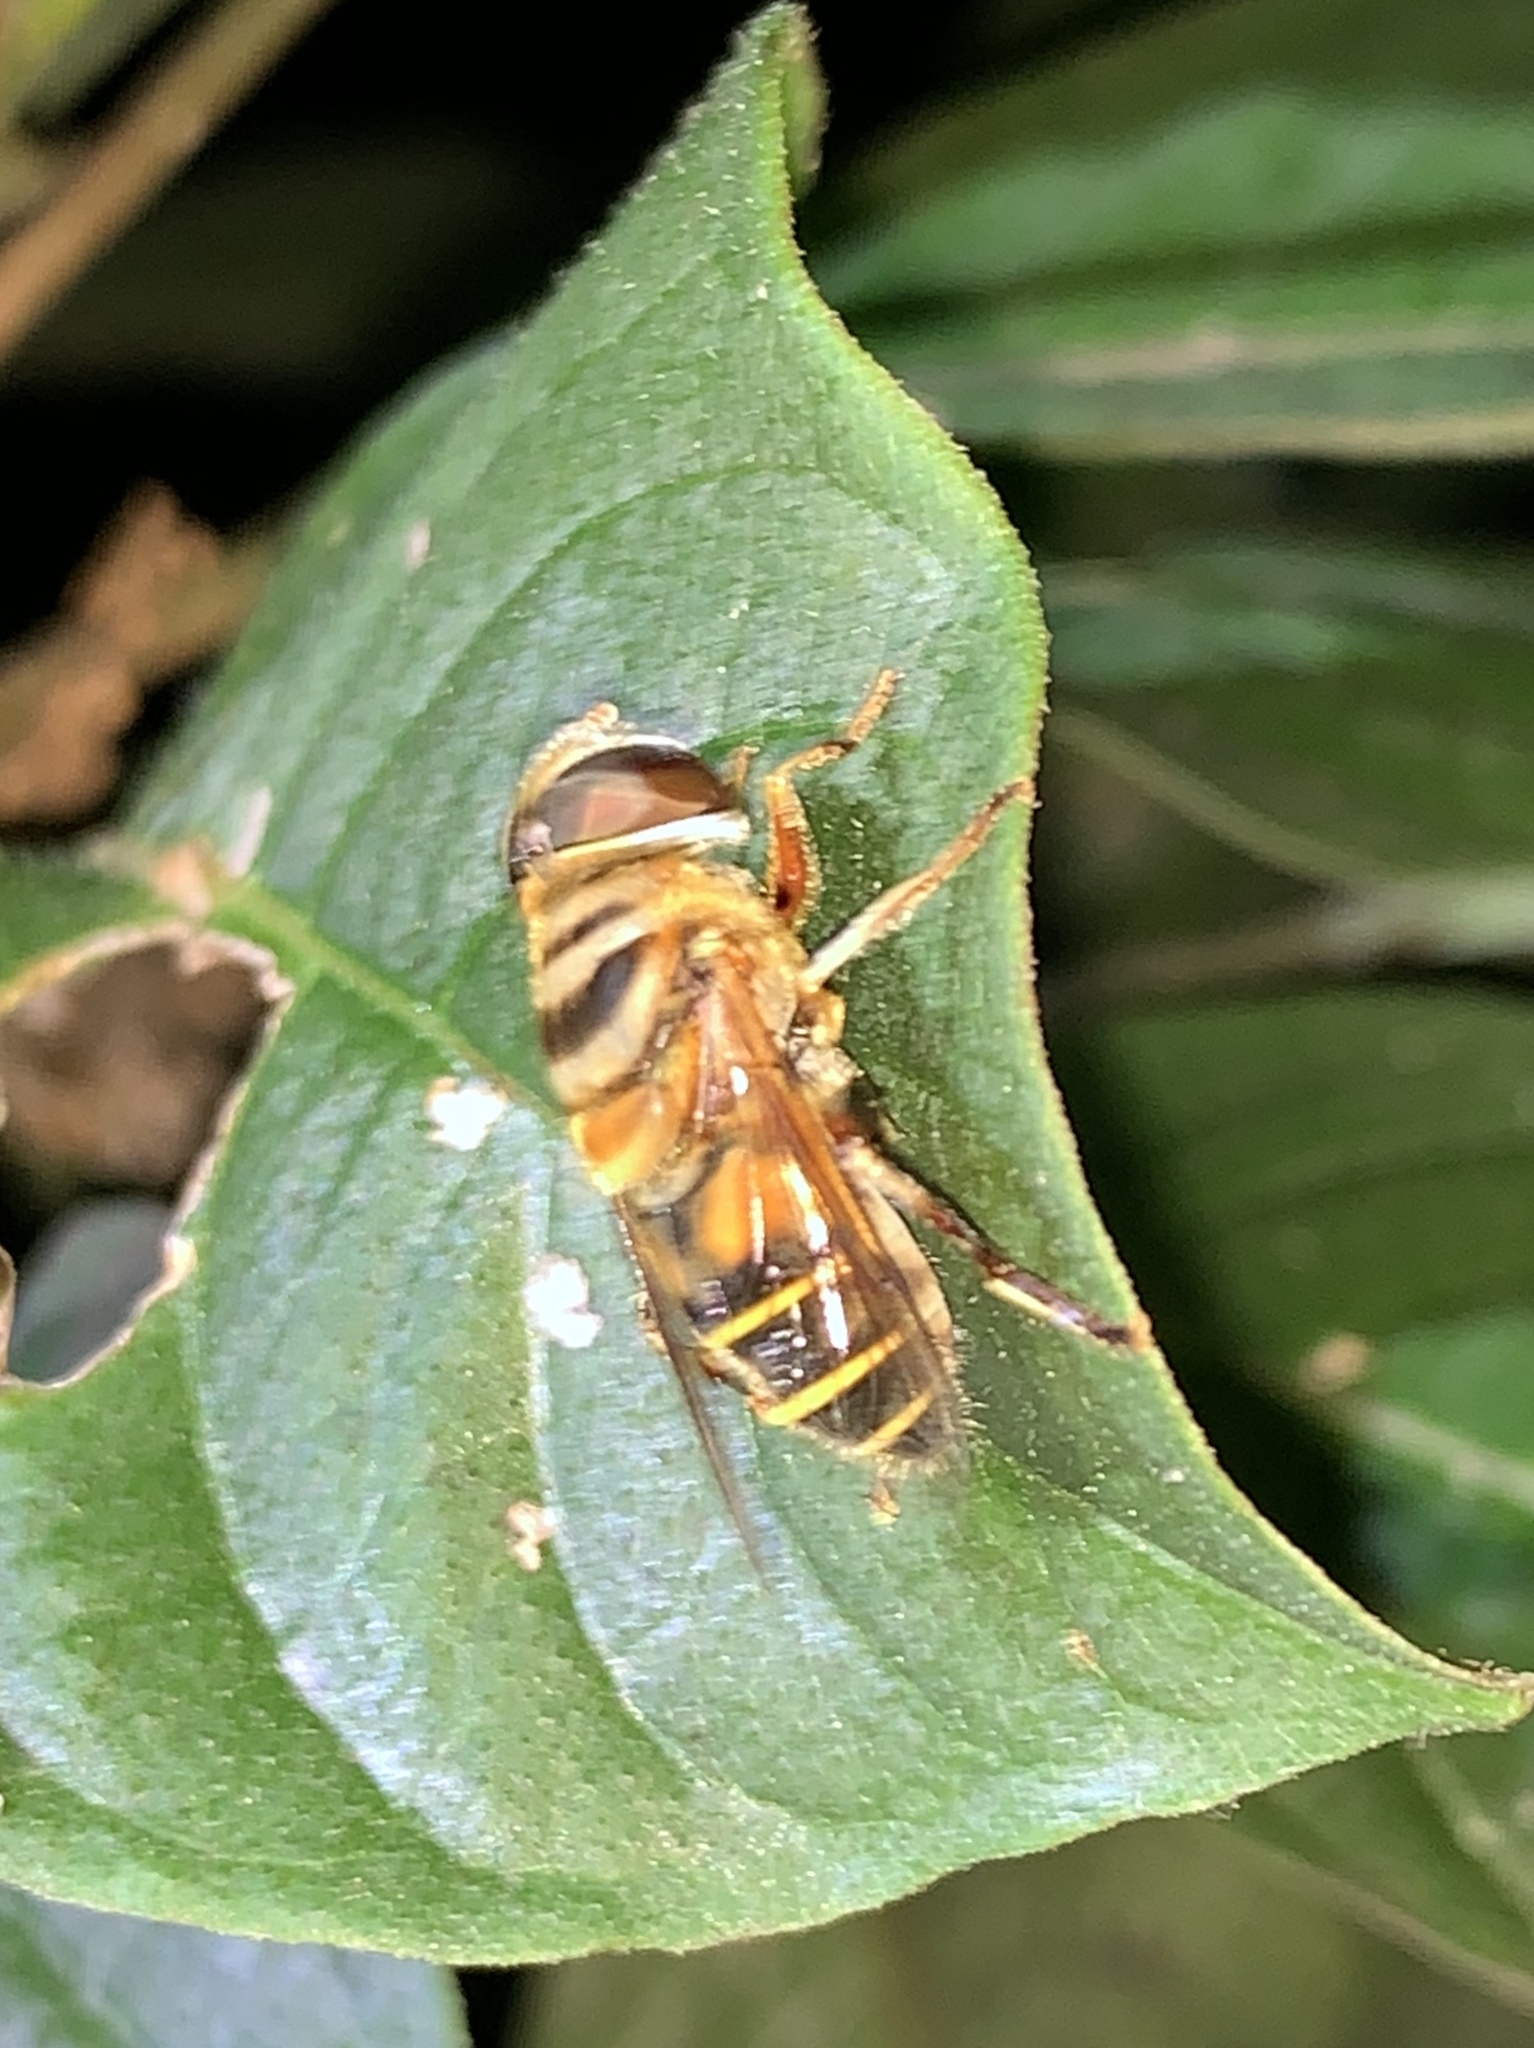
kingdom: Animalia
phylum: Arthropoda
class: Insecta
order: Diptera
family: Syrphidae
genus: Palpada
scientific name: Palpada vinetorum
